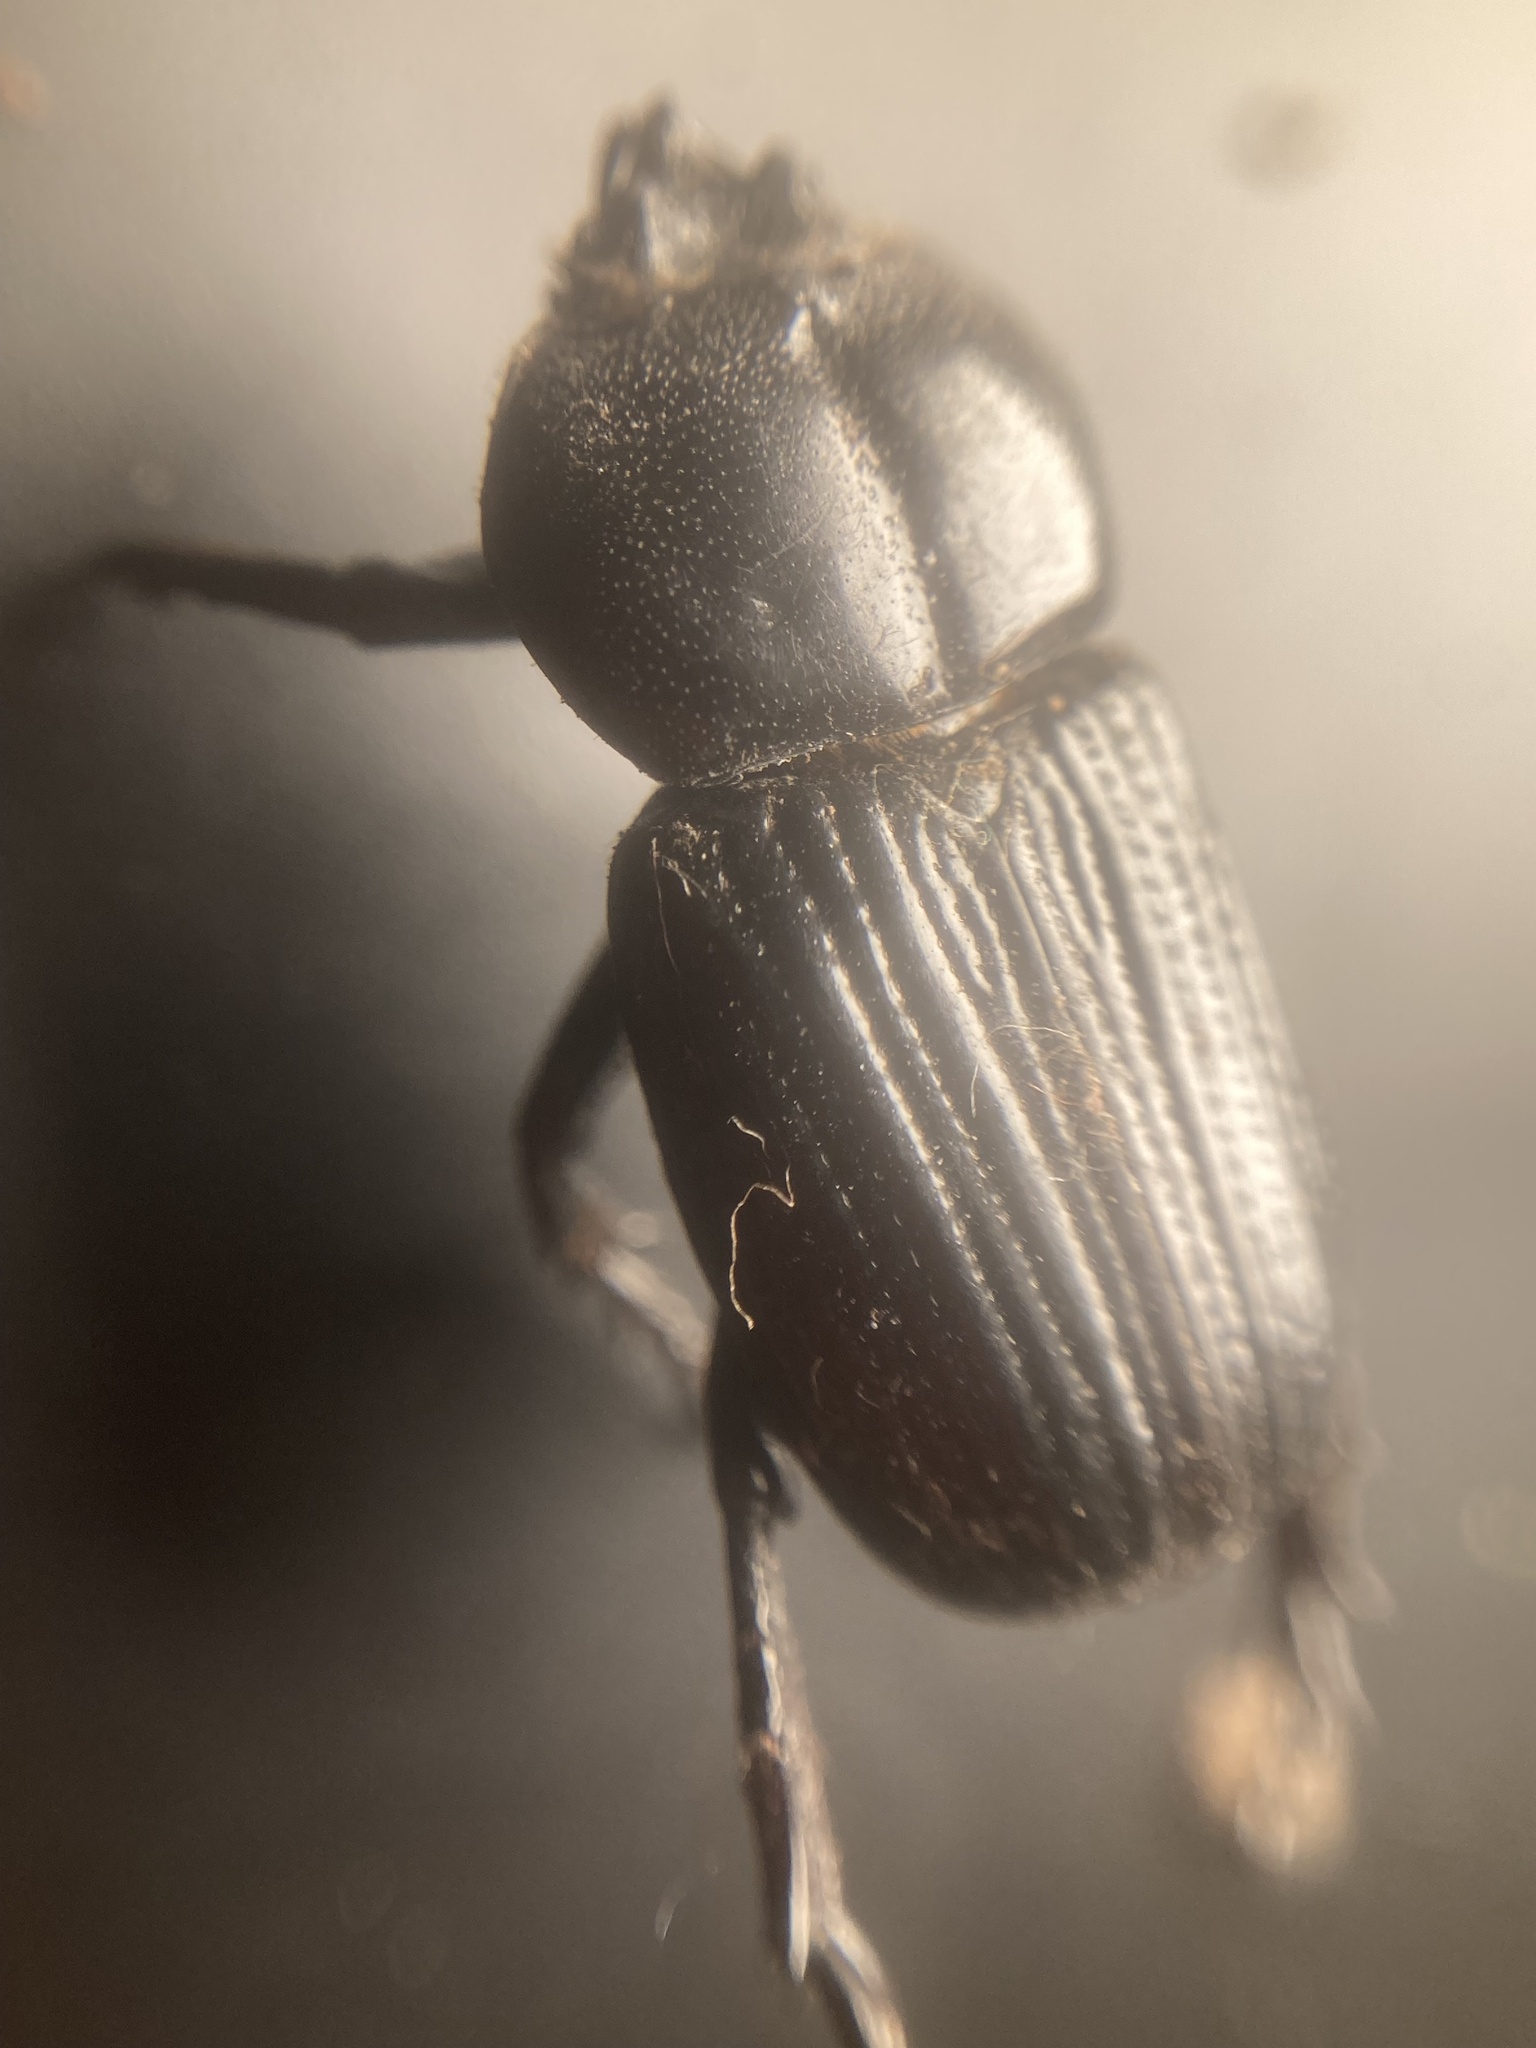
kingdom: Animalia
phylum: Arthropoda
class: Insecta
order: Coleoptera
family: Scarabaeidae
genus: Phileurus
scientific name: Phileurus valgus
